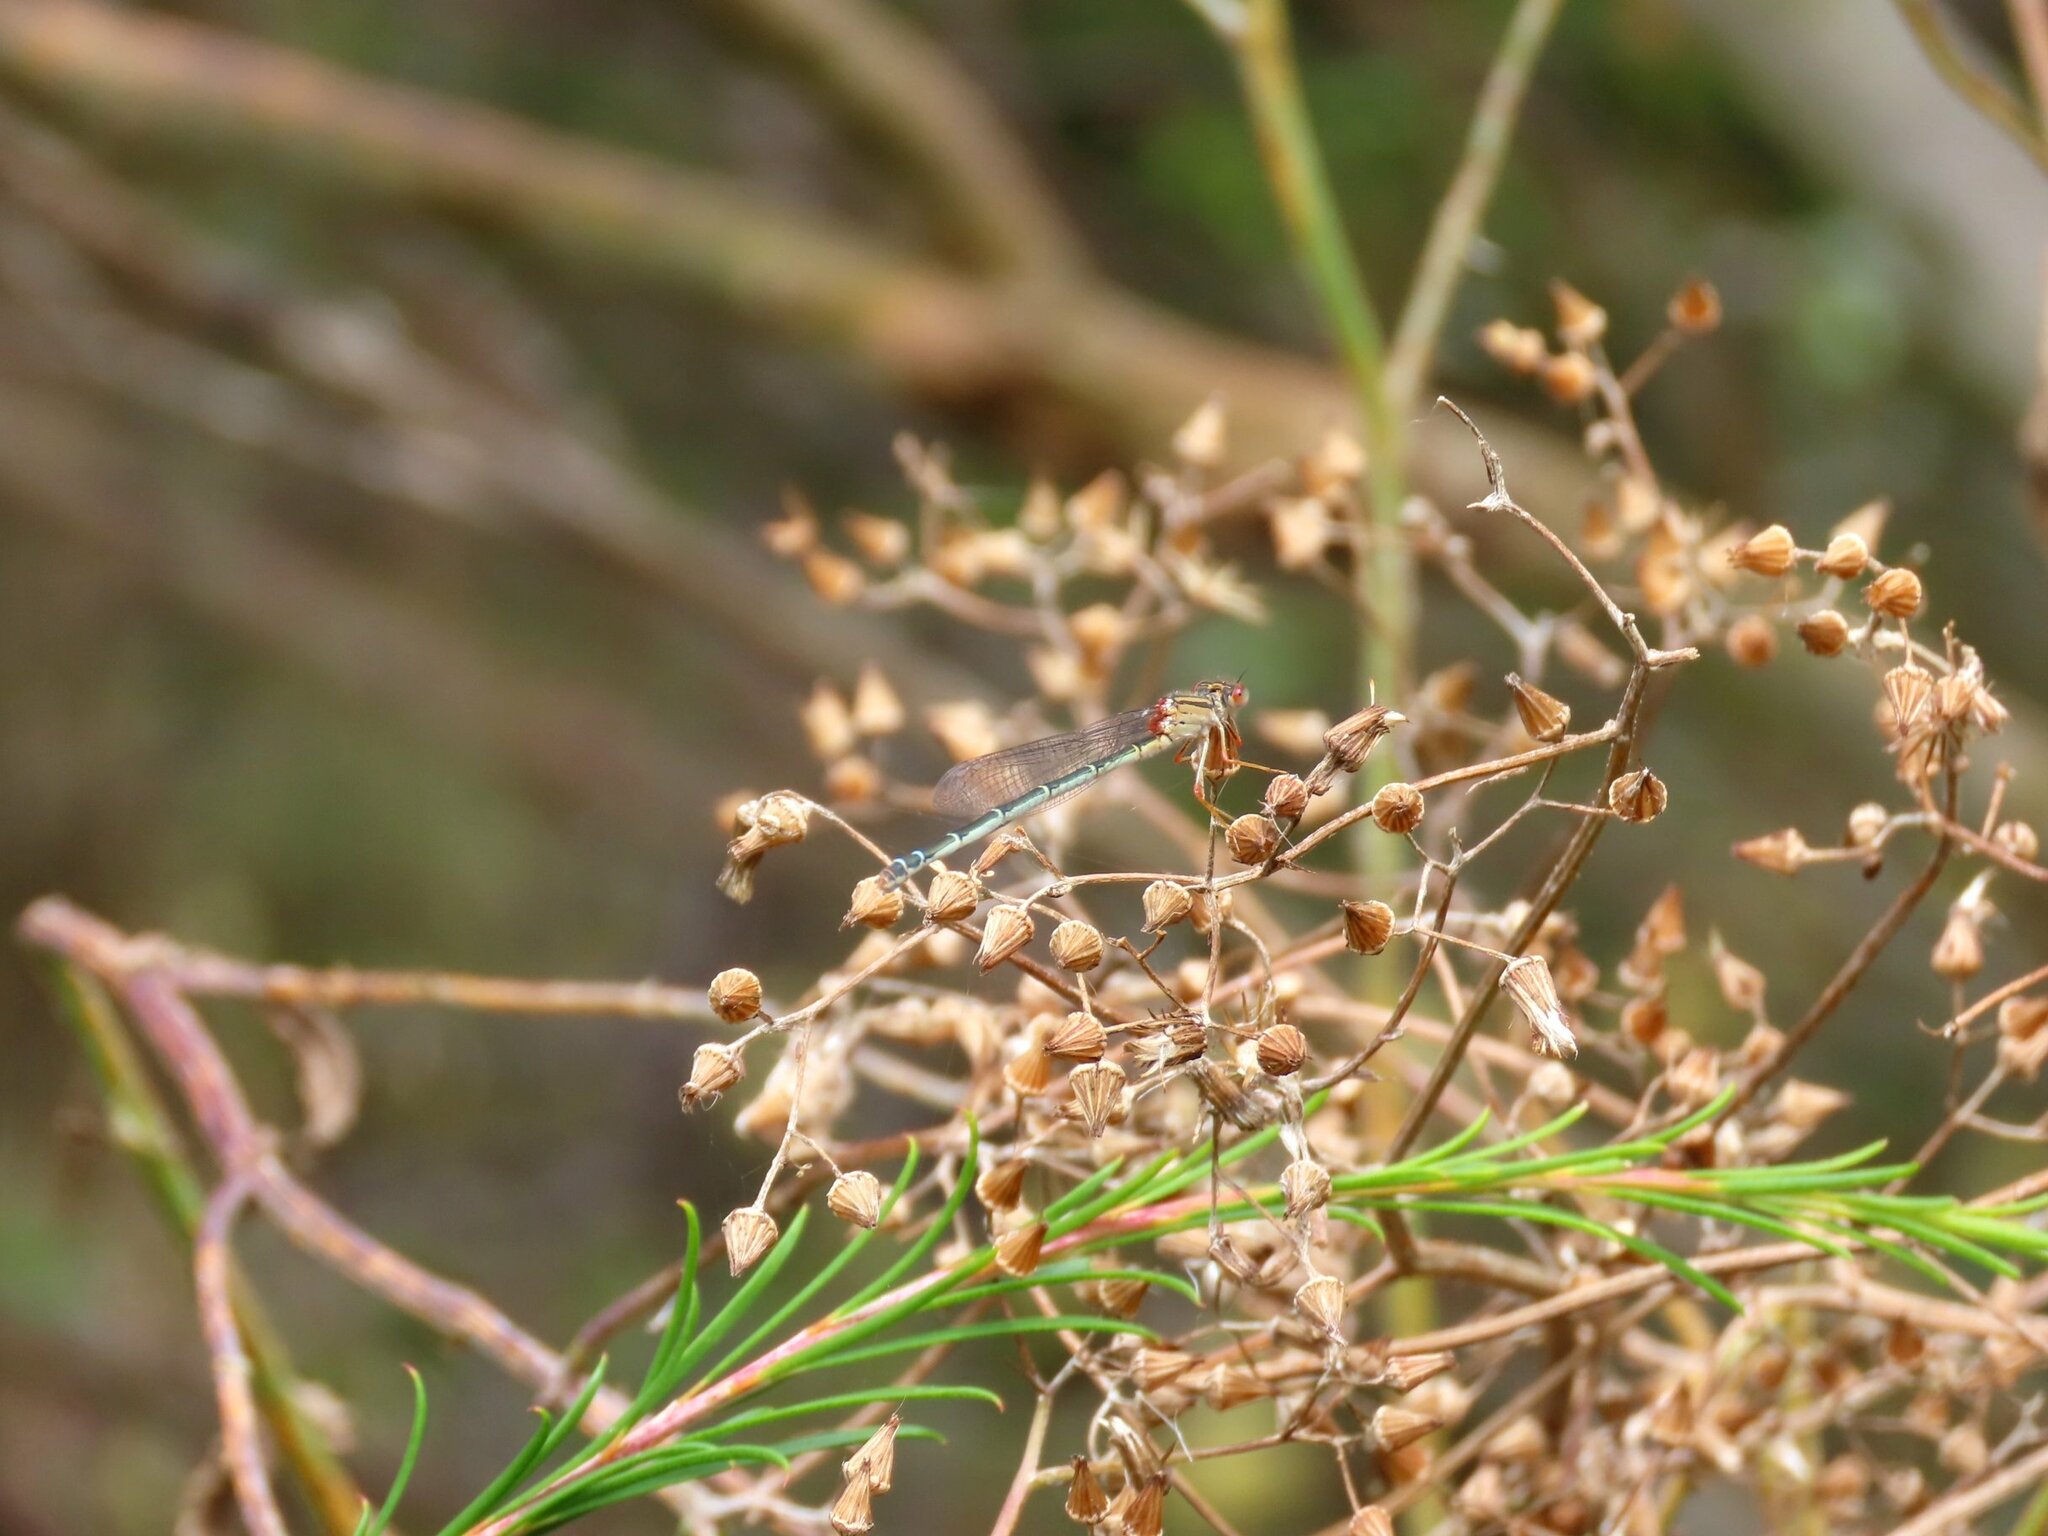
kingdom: Animalia
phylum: Arthropoda
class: Insecta
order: Odonata
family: Coenagrionidae
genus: Xanthagrion
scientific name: Xanthagrion erythroneurum
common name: Red and blue damsel
